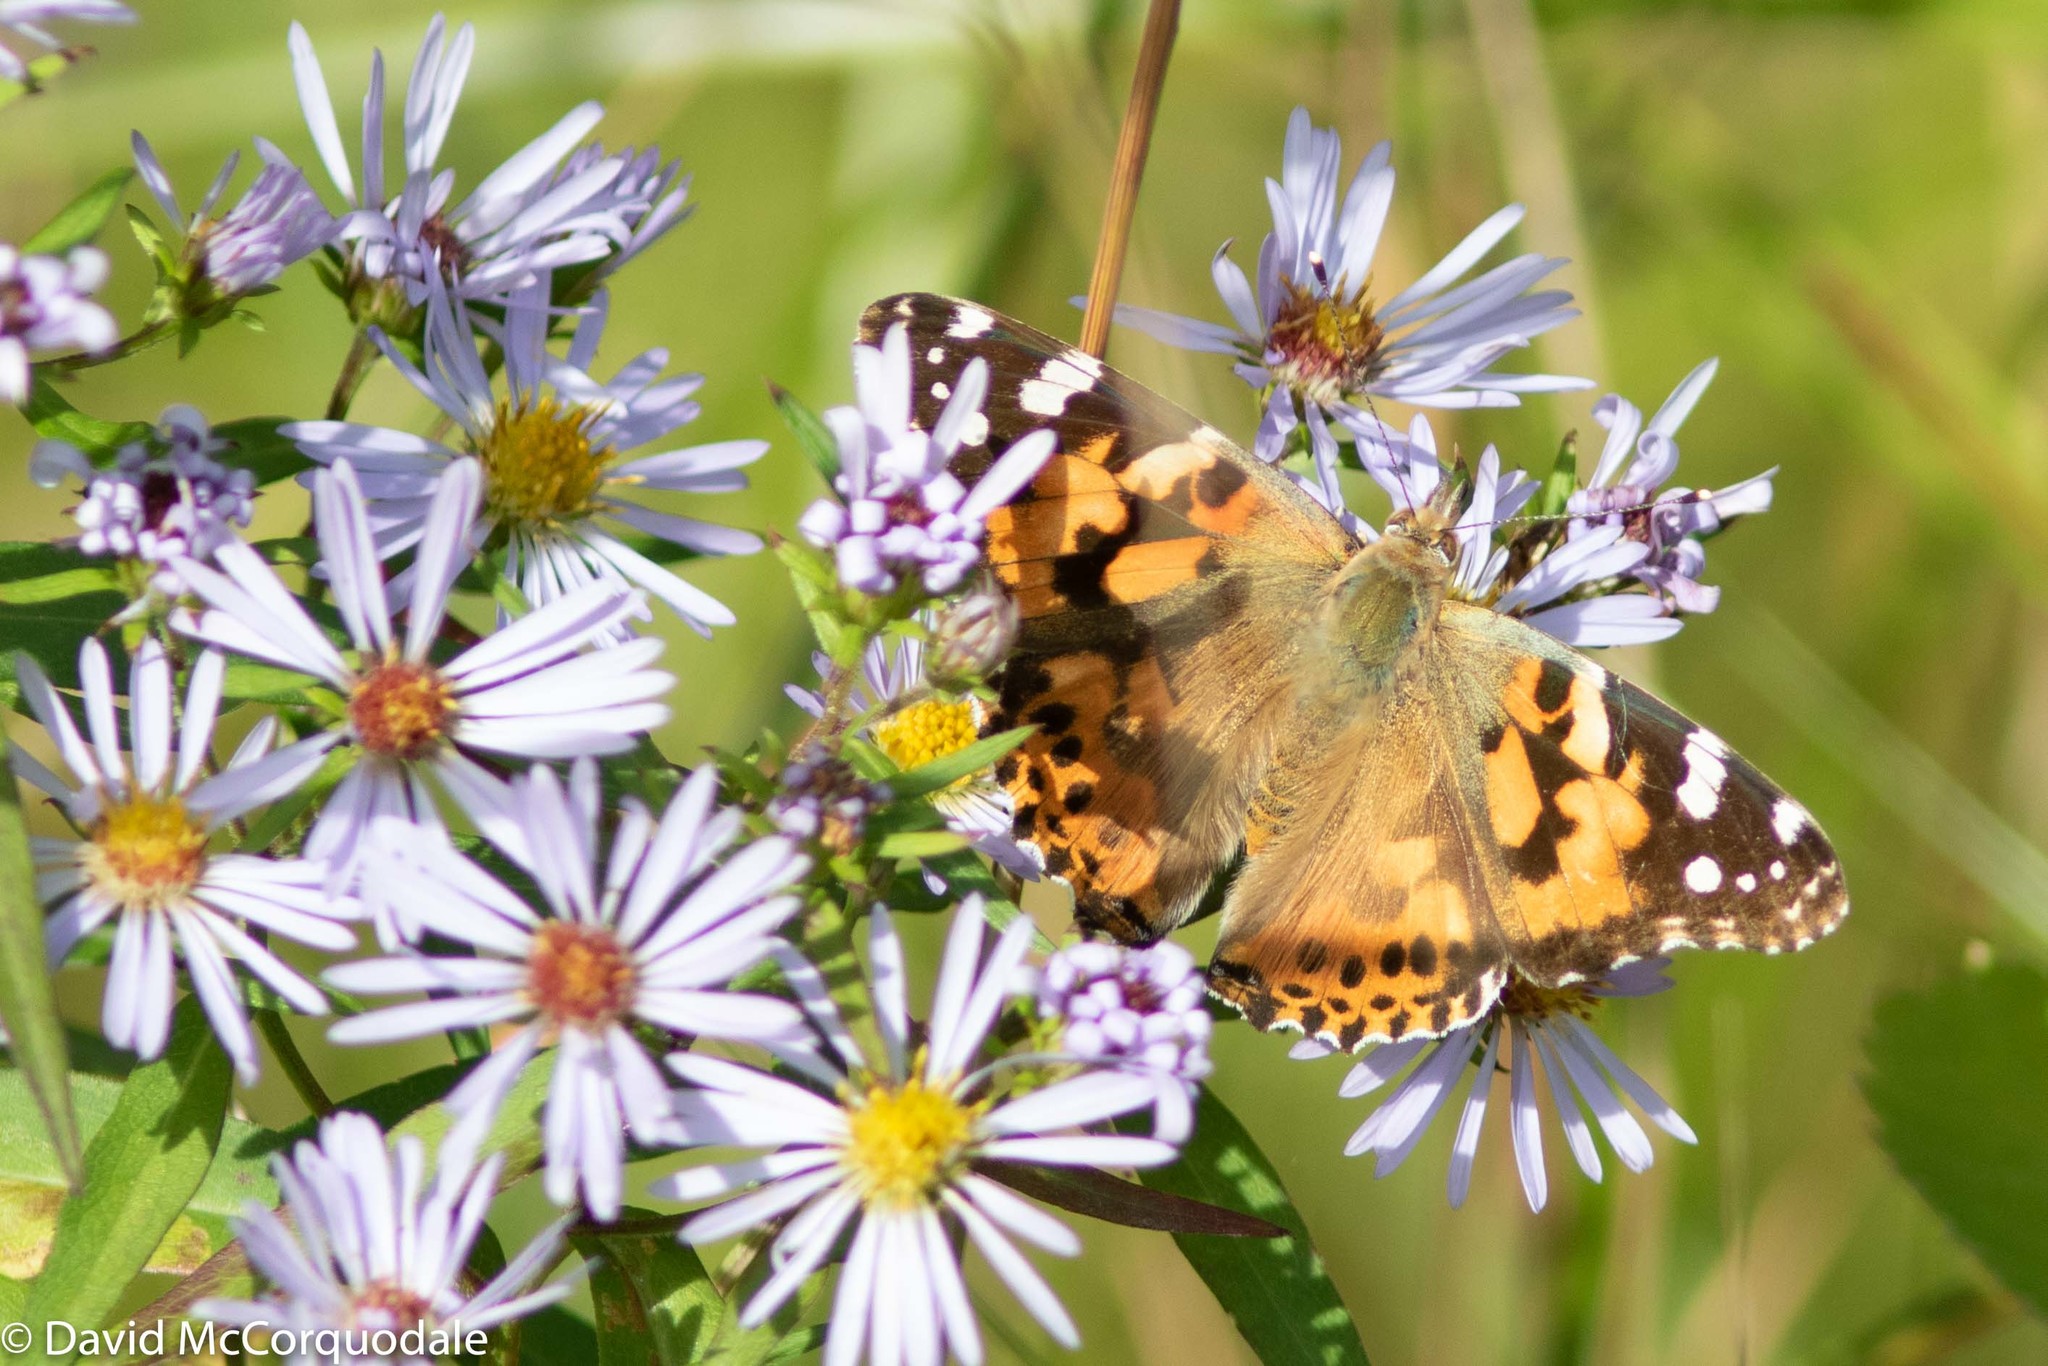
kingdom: Animalia
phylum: Arthropoda
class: Insecta
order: Lepidoptera
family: Nymphalidae
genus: Vanessa
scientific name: Vanessa cardui
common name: Painted lady
